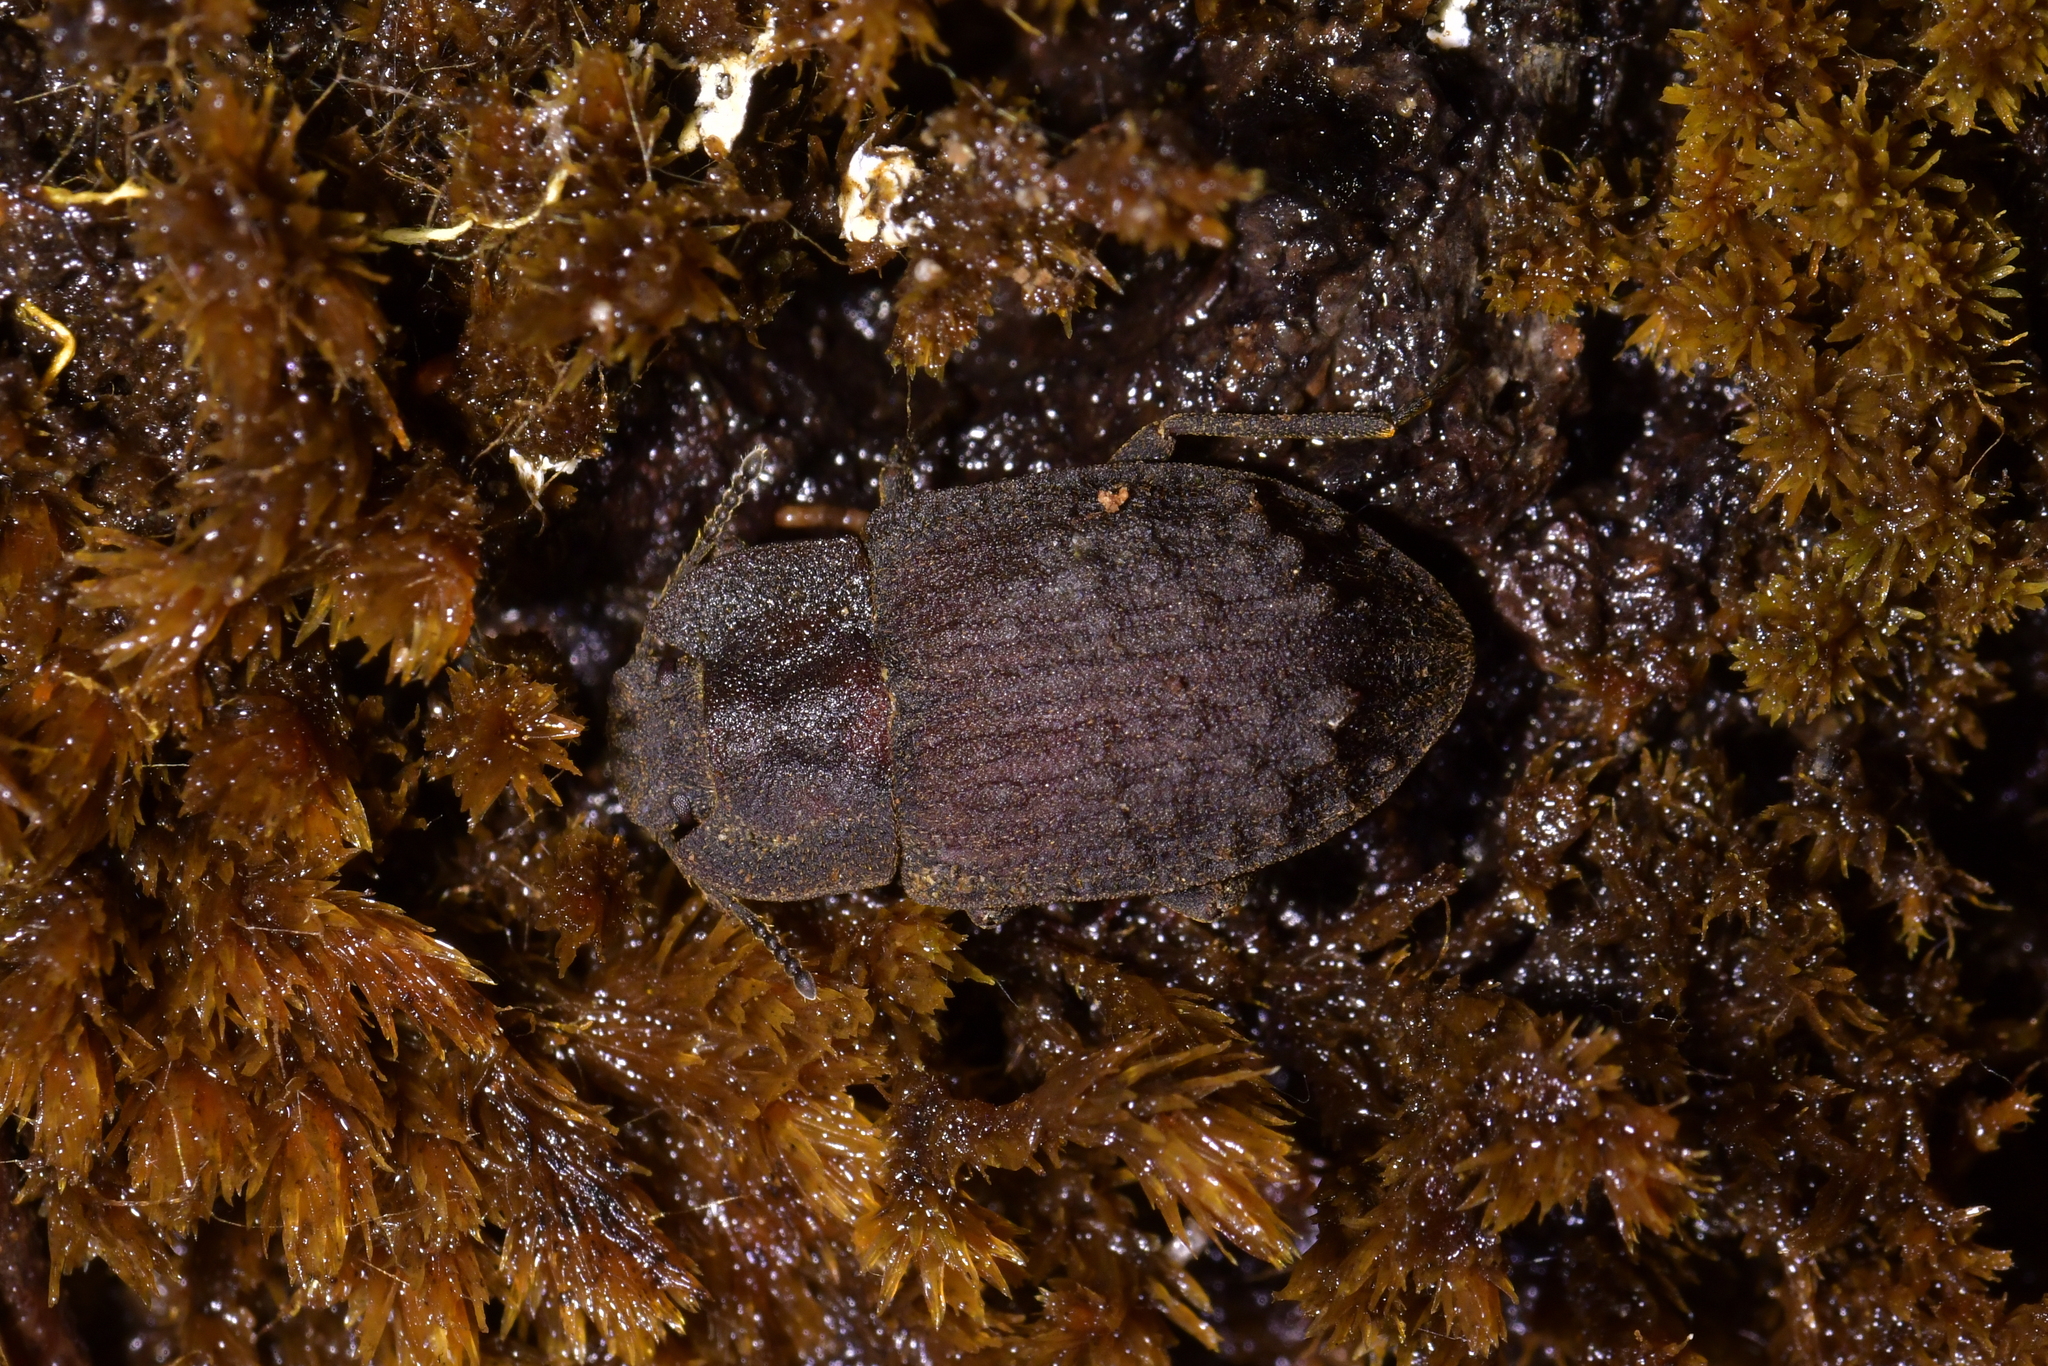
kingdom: Animalia
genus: Mitua
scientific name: Mitua
